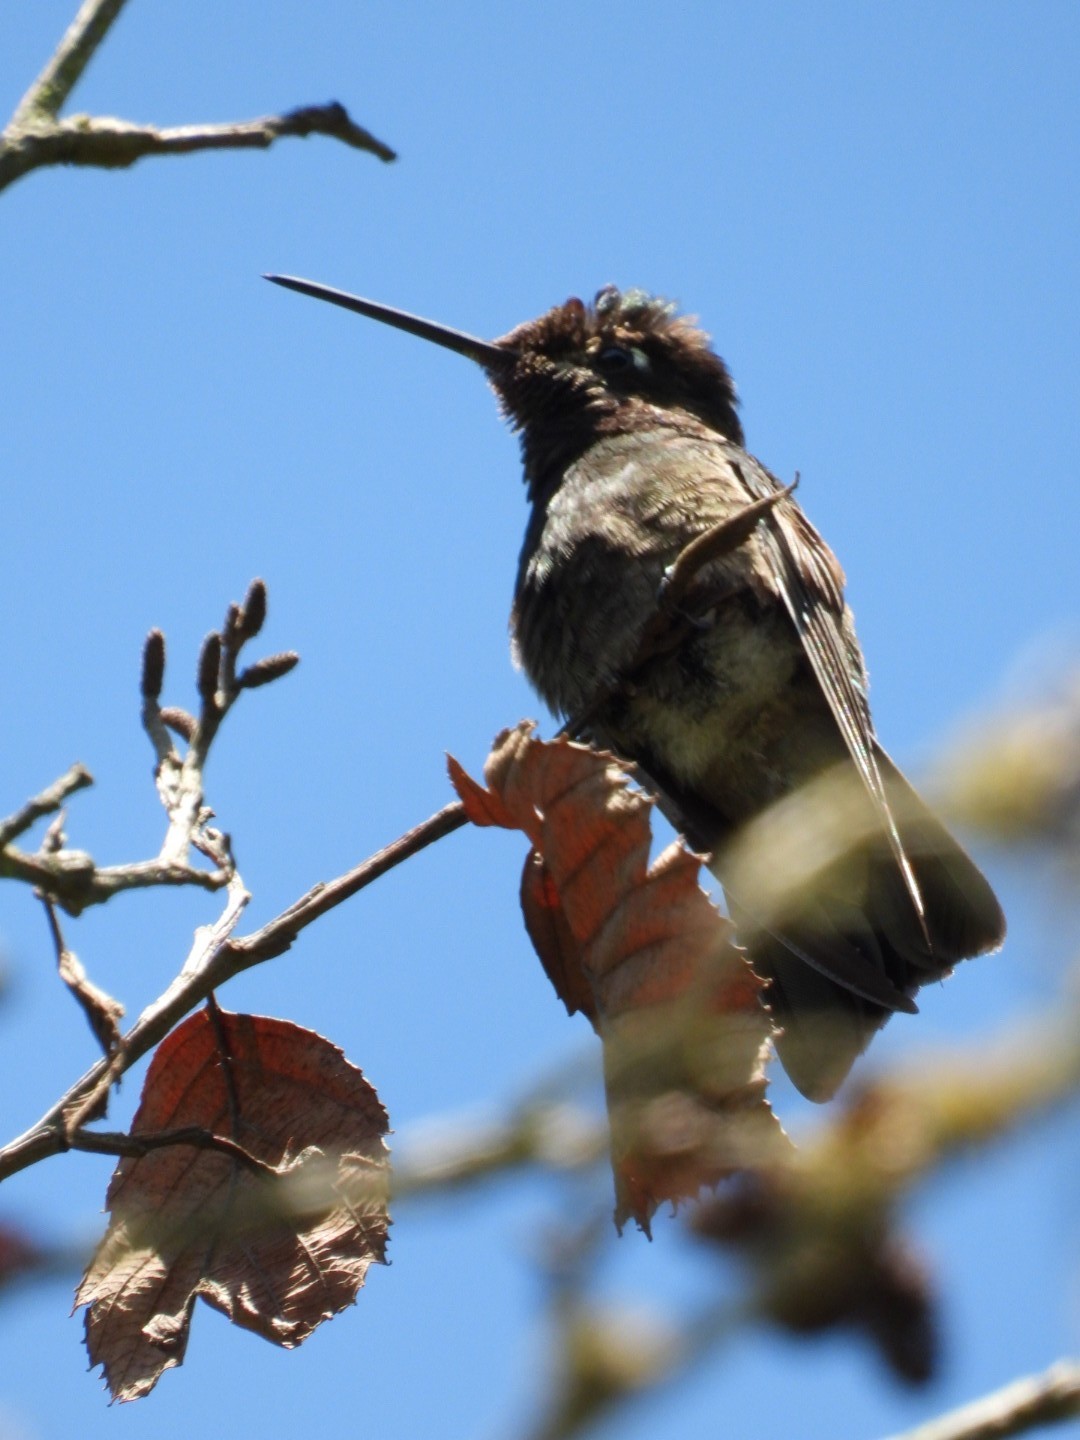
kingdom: Animalia
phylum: Chordata
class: Aves
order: Apodiformes
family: Trochilidae
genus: Eugenes
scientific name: Eugenes fulgens
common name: Magnificent hummingbird
